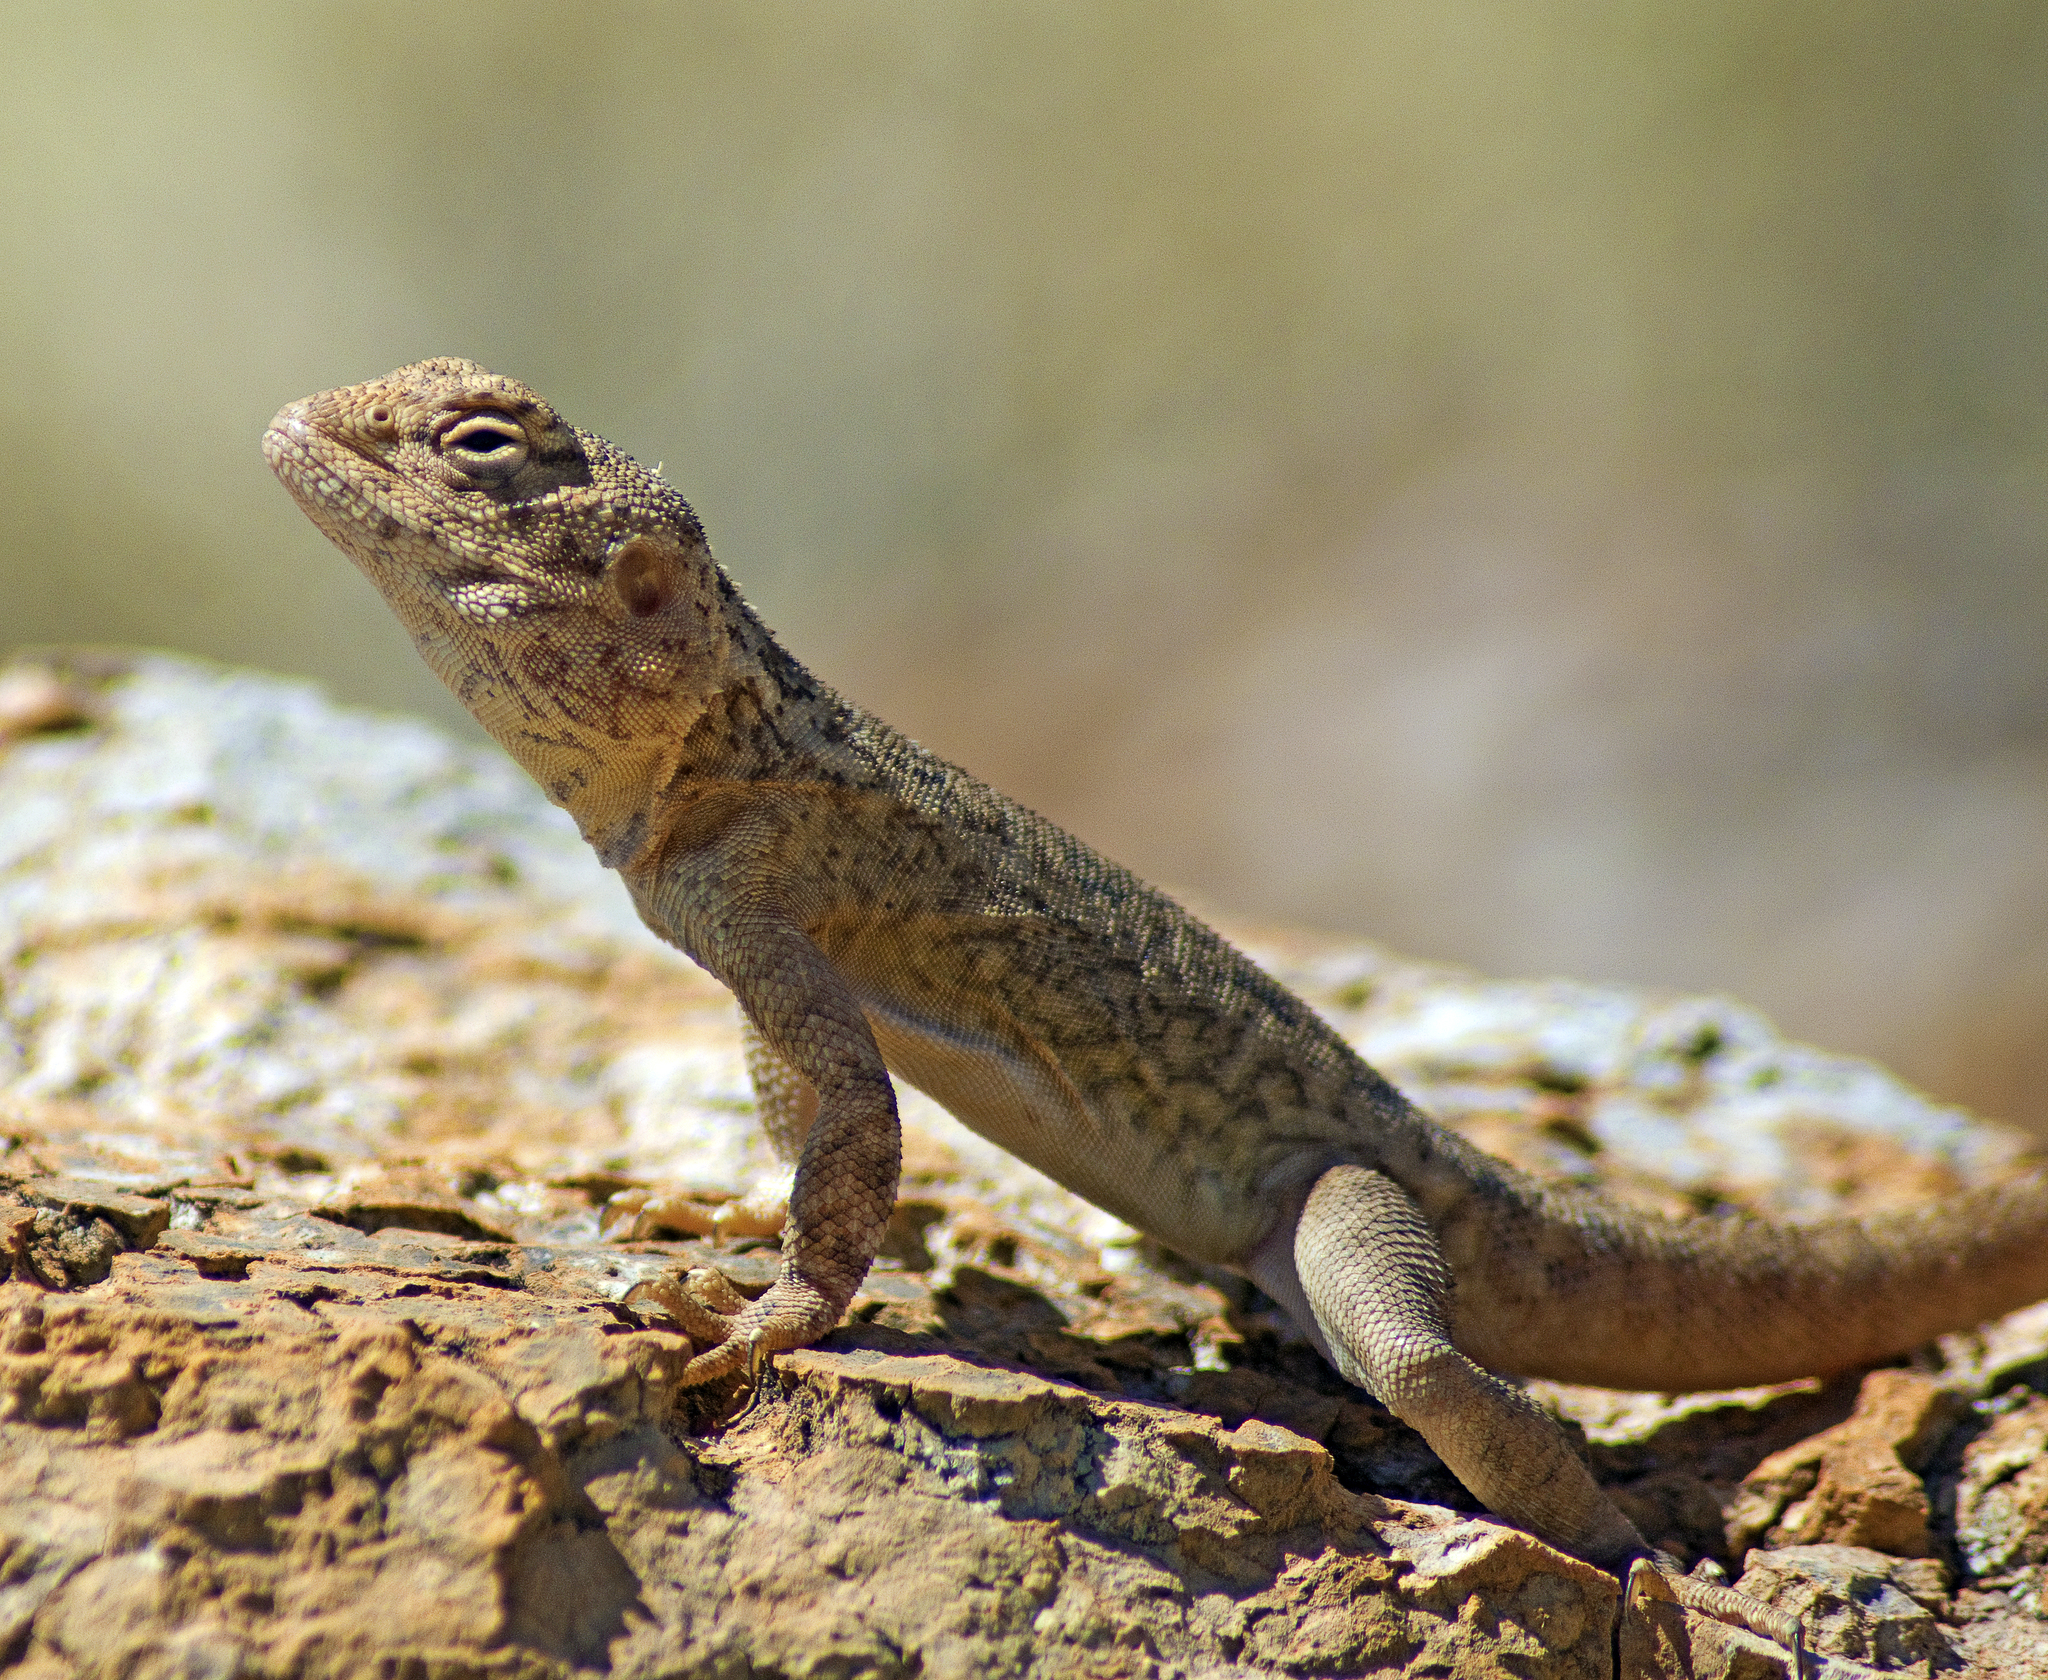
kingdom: Animalia
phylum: Chordata
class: Squamata
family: Agamidae
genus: Ctenophorus
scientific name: Ctenophorus slateri
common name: Slater’s dragon
